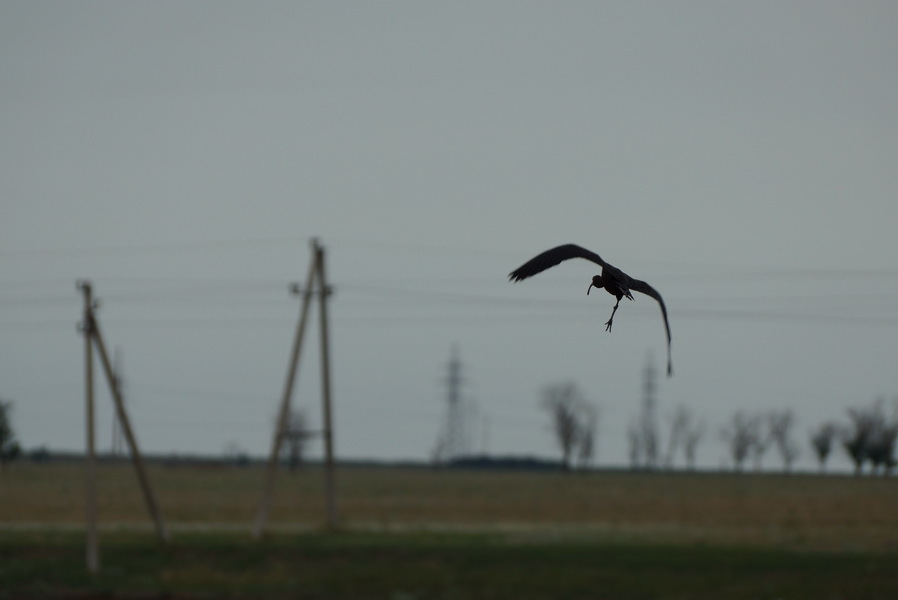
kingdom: Animalia
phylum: Chordata
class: Aves
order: Pelecaniformes
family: Threskiornithidae
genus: Plegadis
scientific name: Plegadis falcinellus
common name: Glossy ibis
